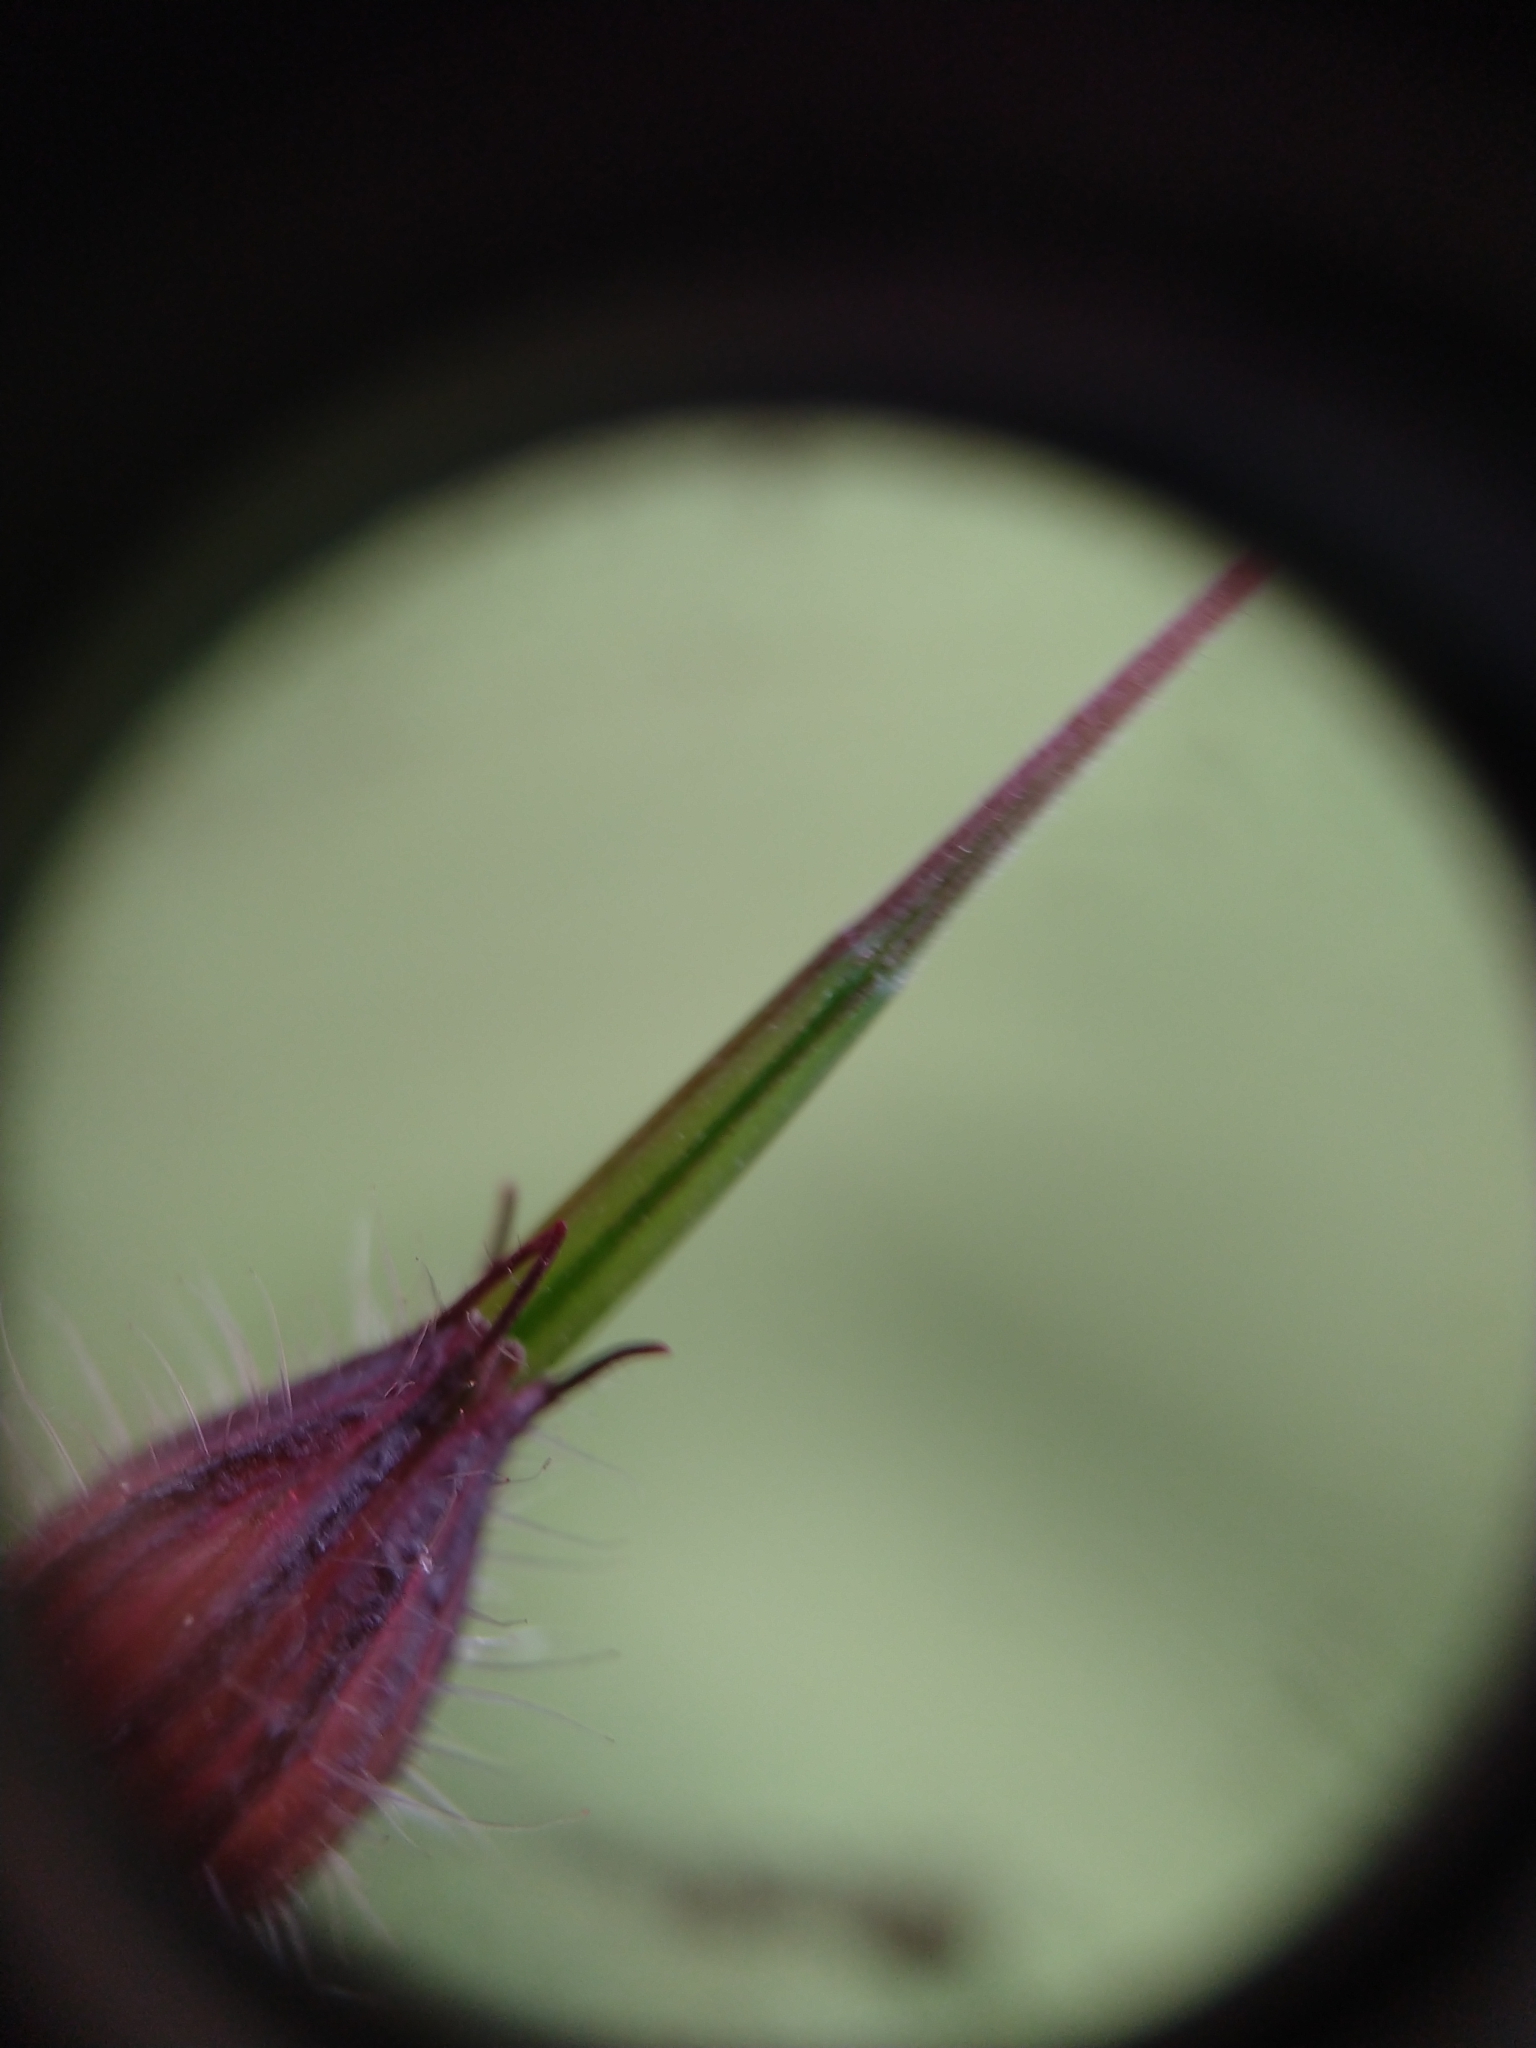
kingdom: Plantae
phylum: Tracheophyta
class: Magnoliopsida
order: Geraniales
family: Geraniaceae
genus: Geranium
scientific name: Geranium robertianum
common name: Herb-robert
